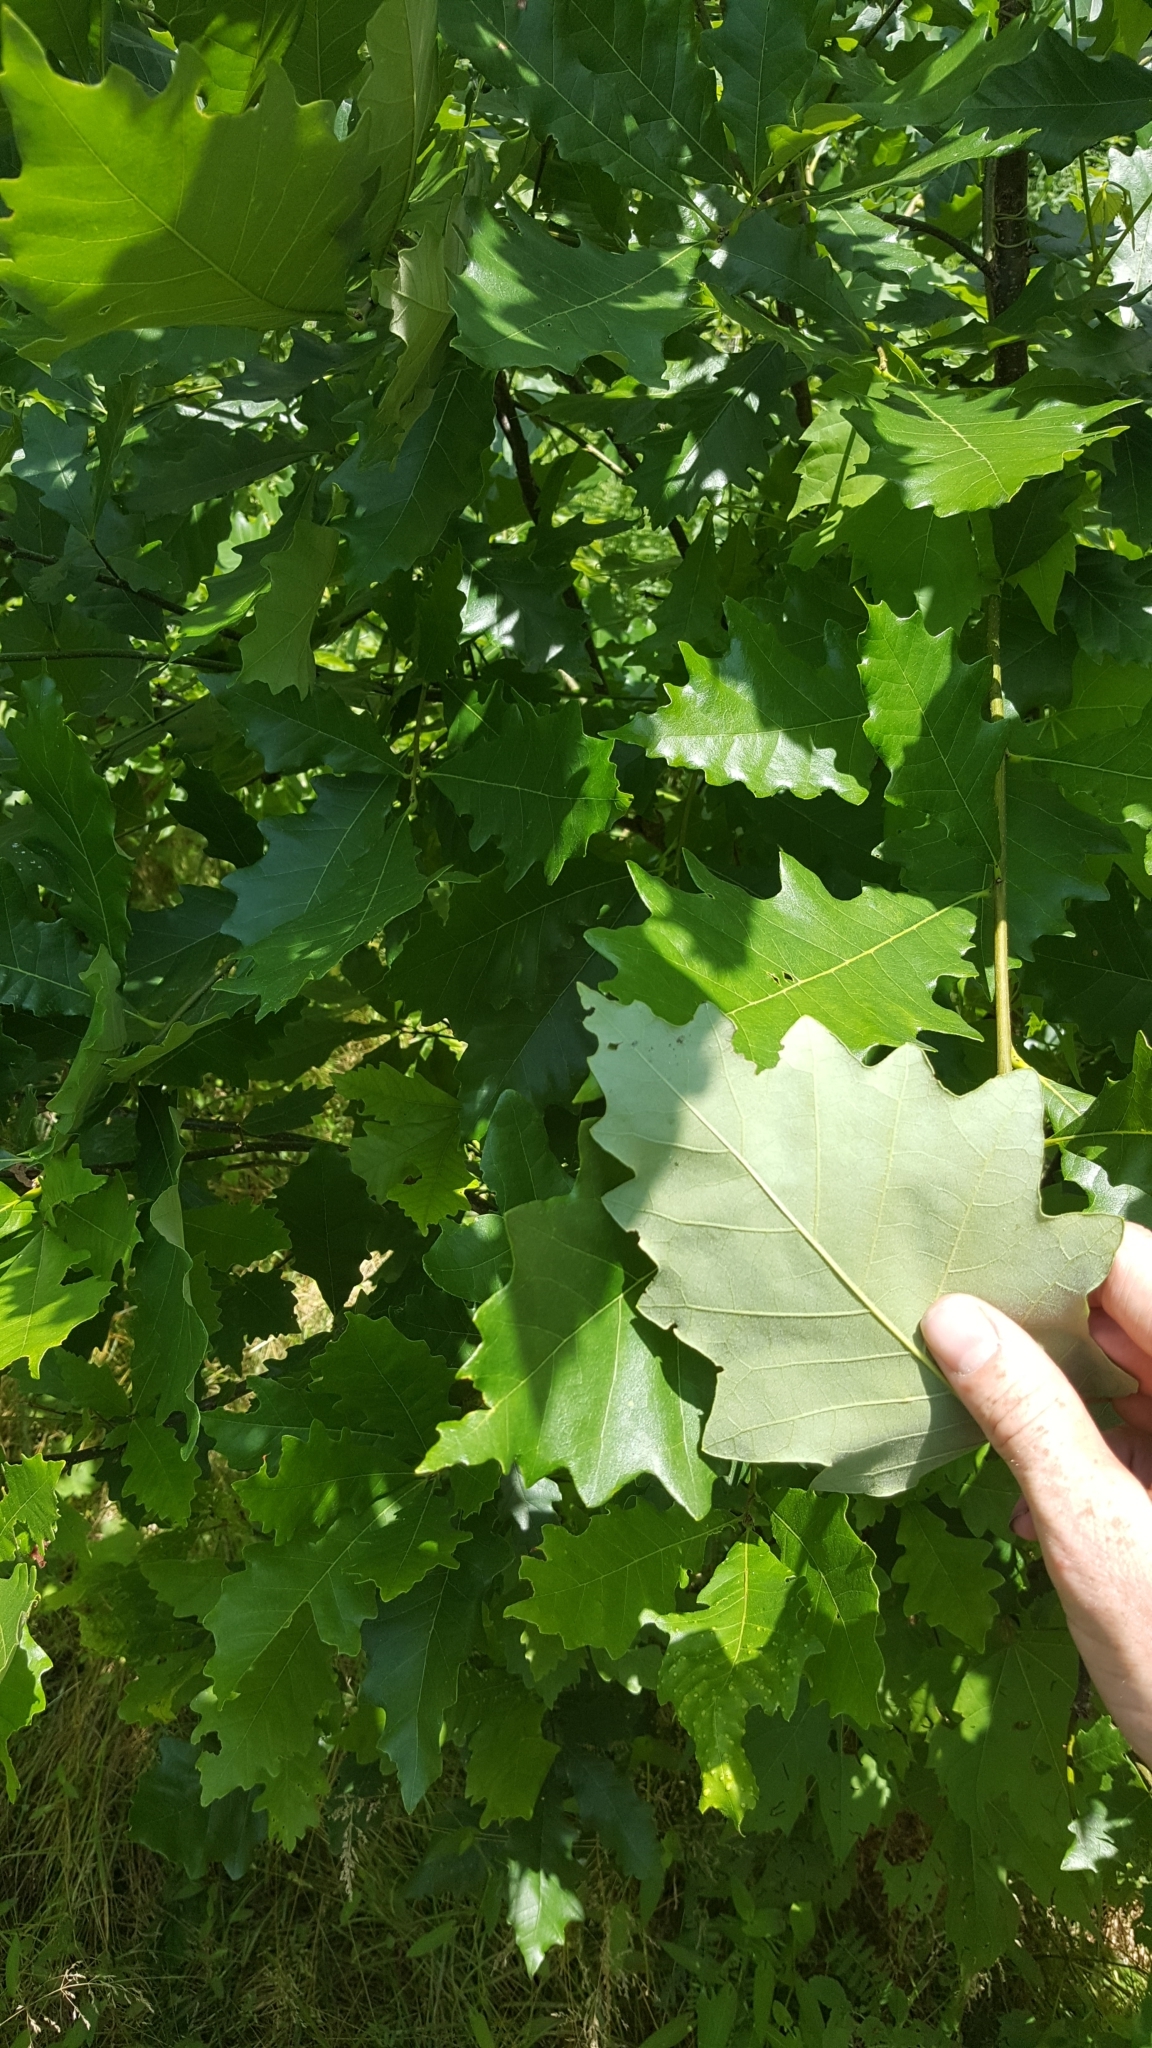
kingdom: Plantae
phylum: Tracheophyta
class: Magnoliopsida
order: Fagales
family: Fagaceae
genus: Quercus
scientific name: Quercus bicolor
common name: Swamp white oak
